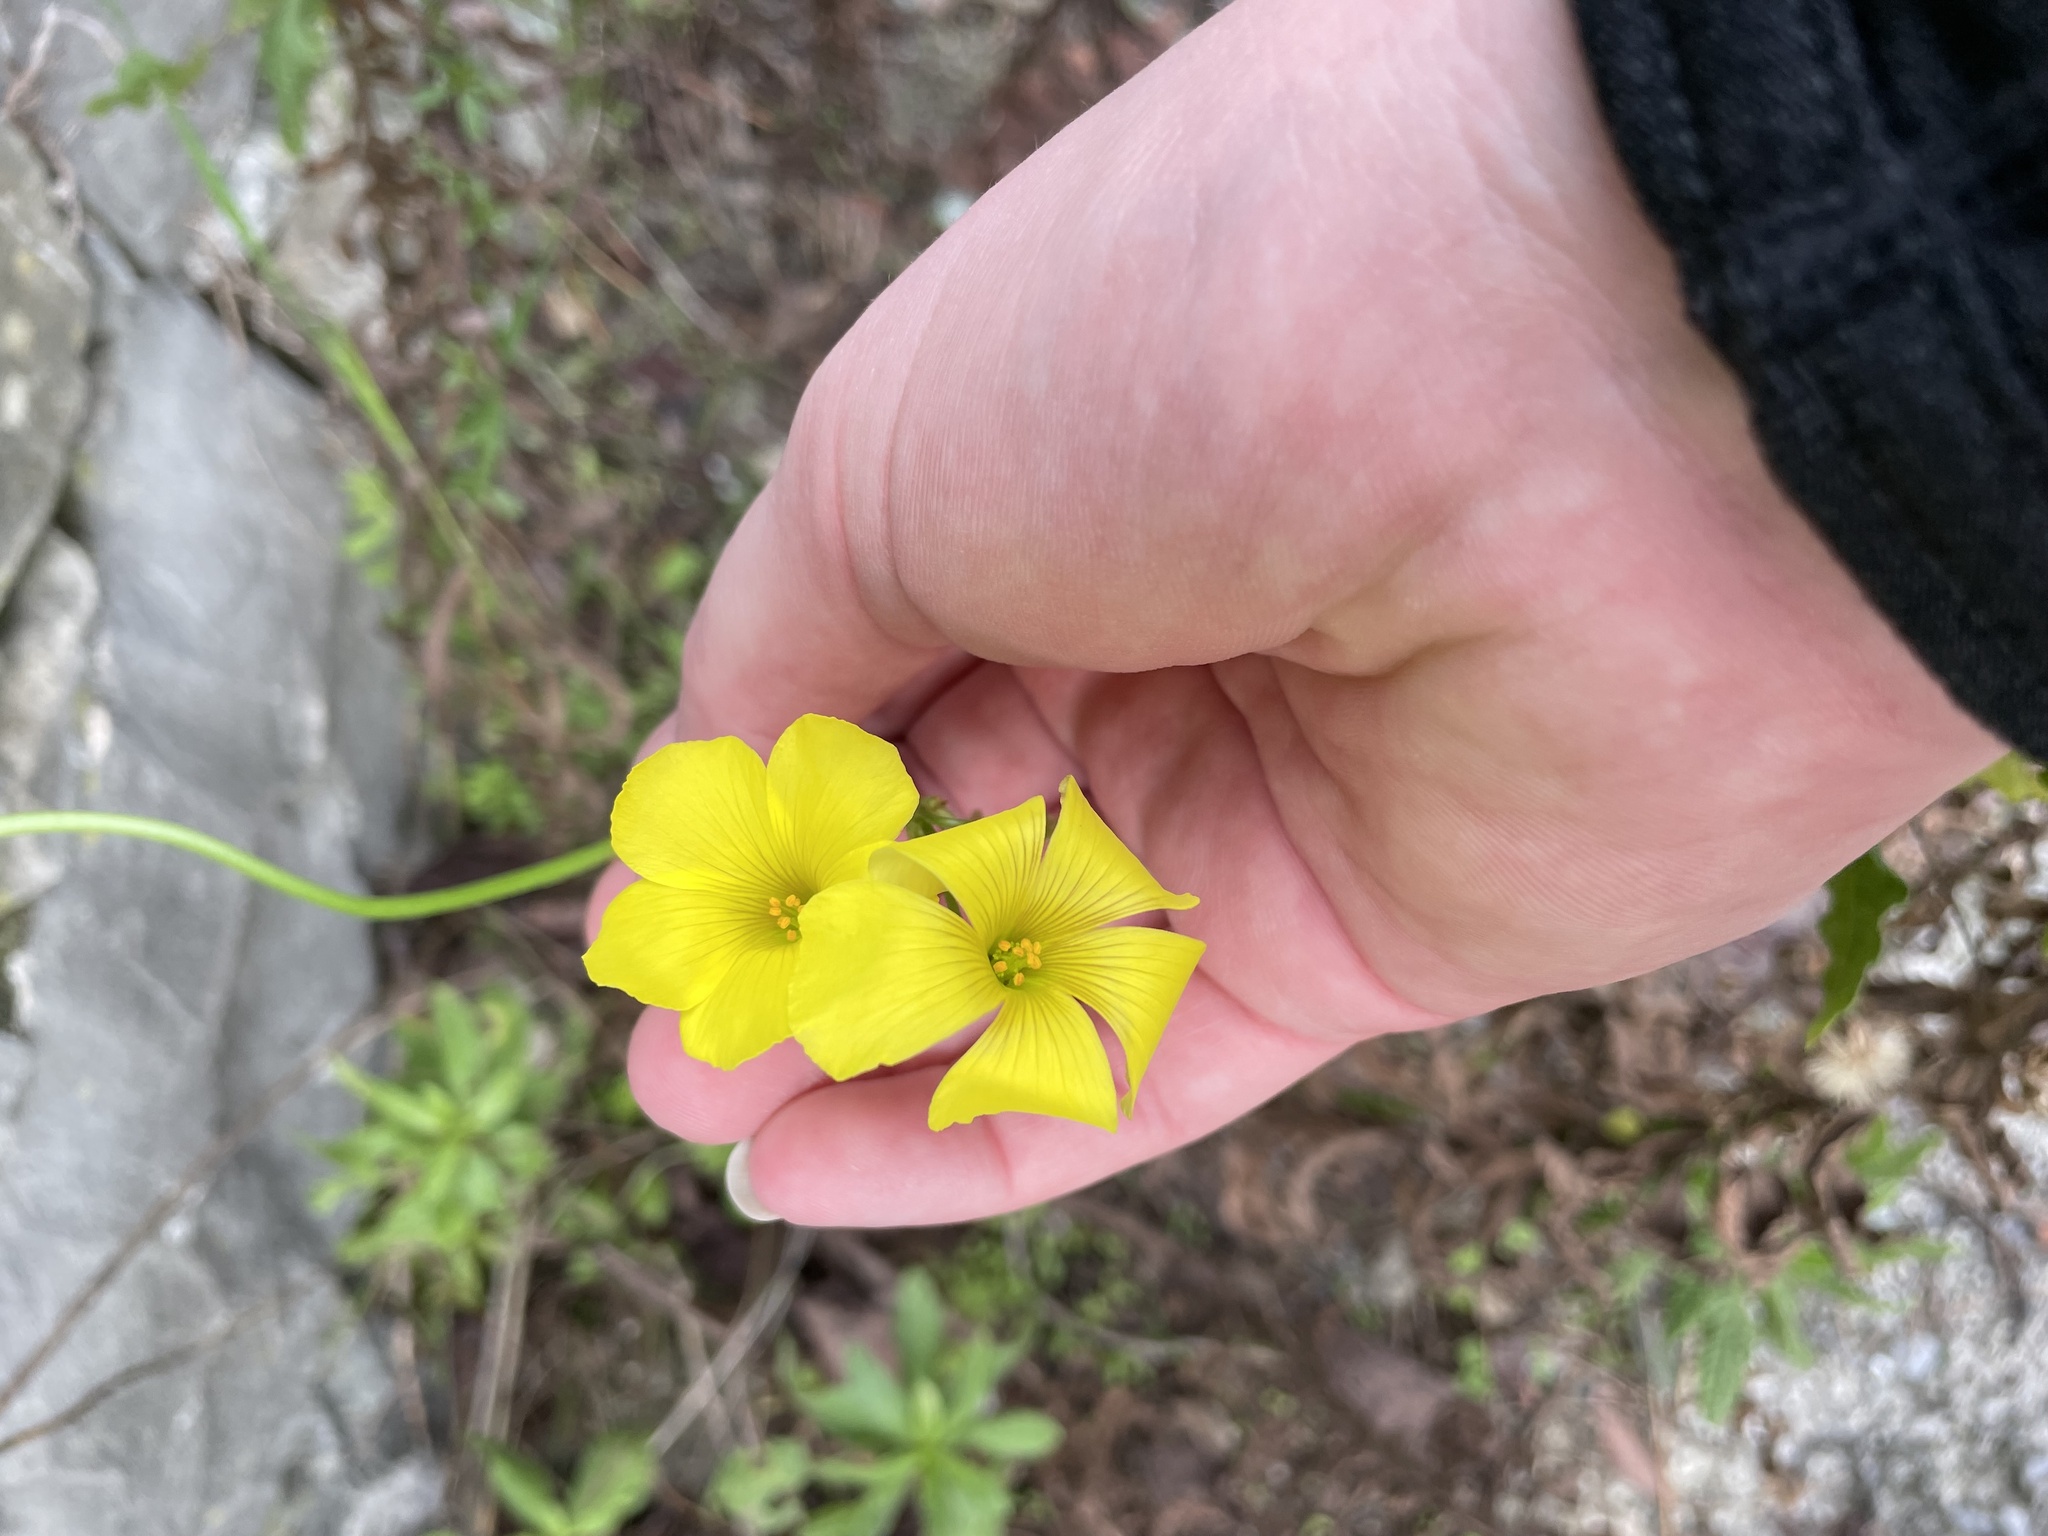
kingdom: Plantae
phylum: Tracheophyta
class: Magnoliopsida
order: Oxalidales
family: Oxalidaceae
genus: Oxalis
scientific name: Oxalis pes-caprae
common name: Bermuda-buttercup
